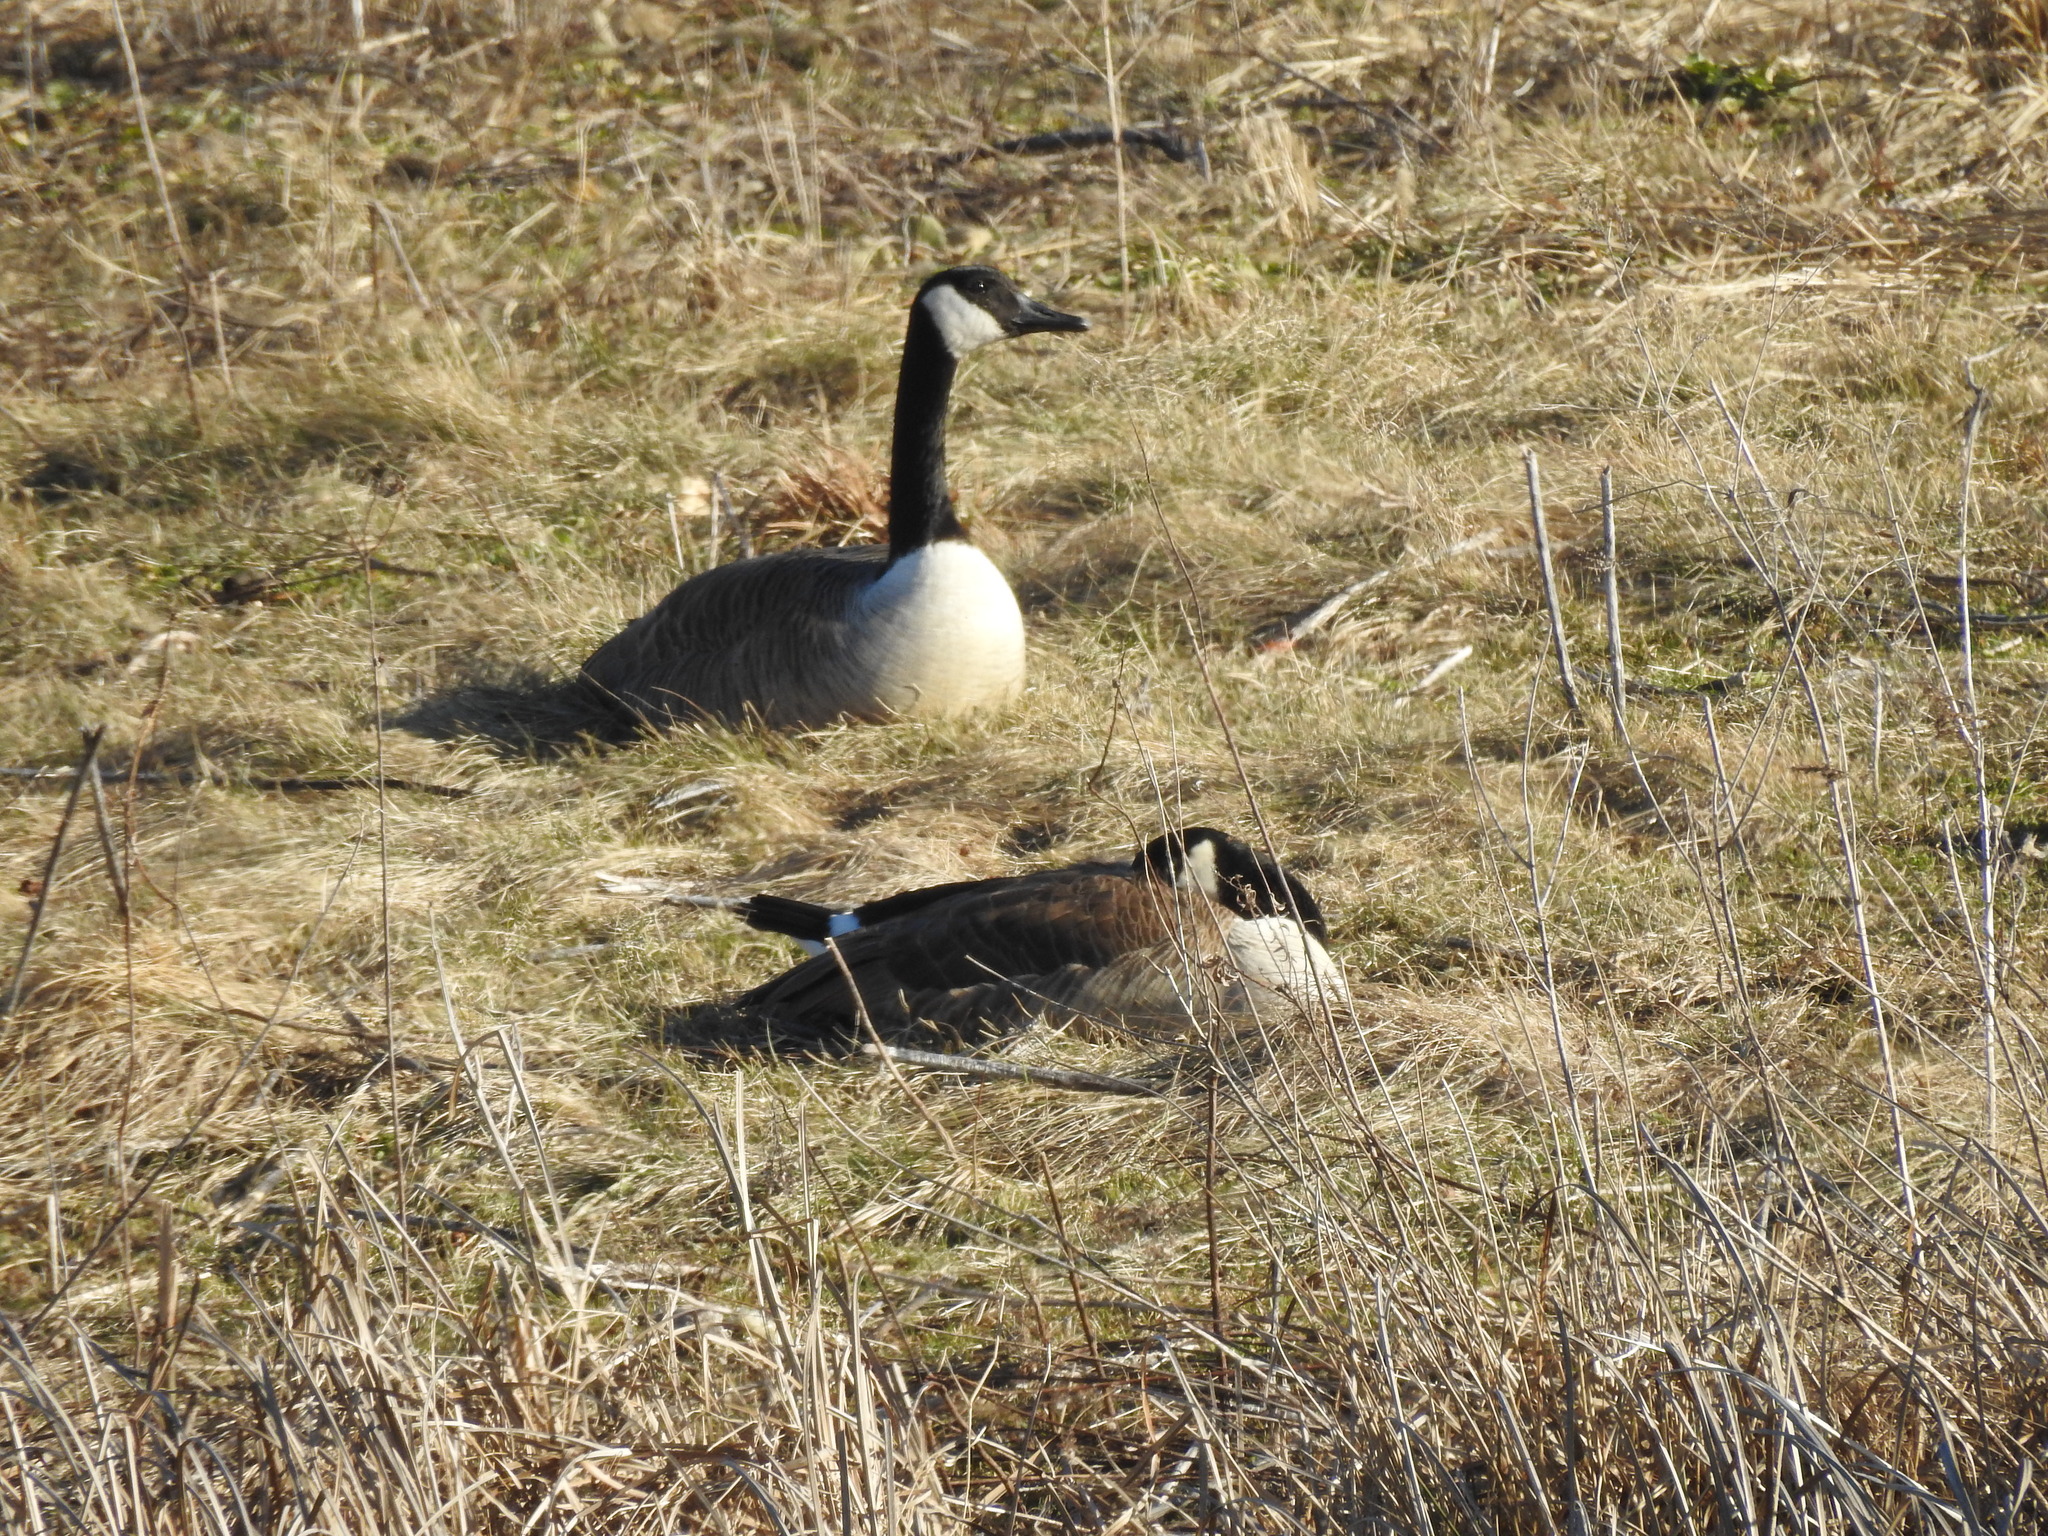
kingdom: Animalia
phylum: Chordata
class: Aves
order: Anseriformes
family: Anatidae
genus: Branta
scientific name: Branta canadensis
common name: Canada goose
